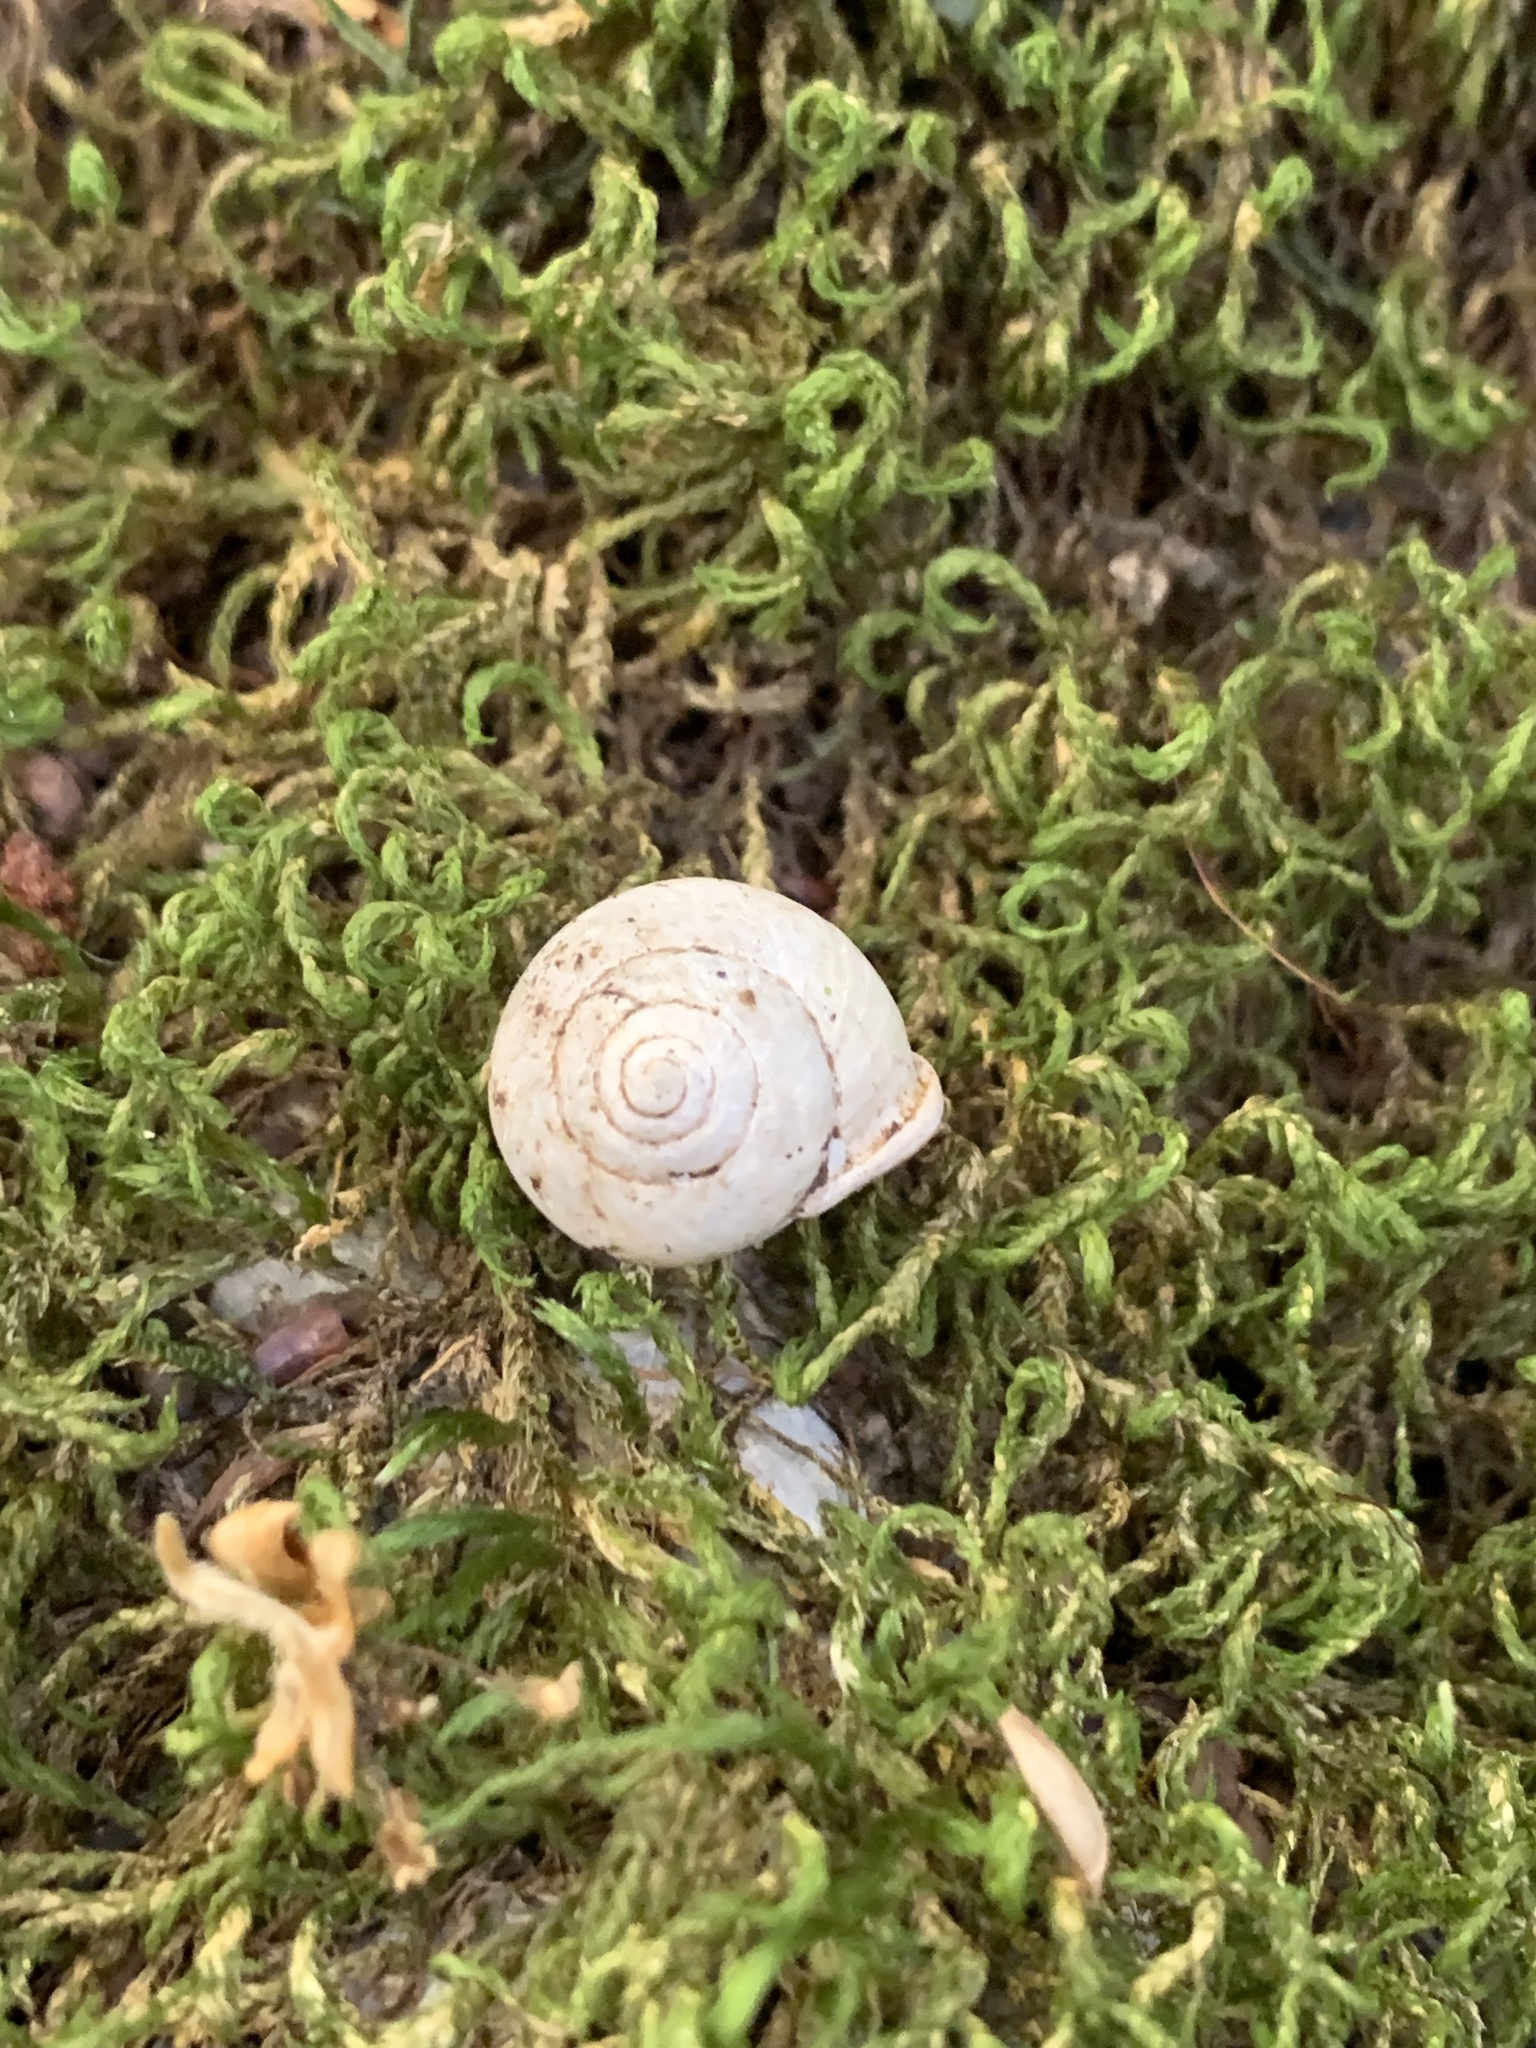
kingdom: Animalia
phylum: Mollusca
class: Gastropoda
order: Cycloneritida
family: Helicinidae
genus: Waldemaria
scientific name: Waldemaria japonica
